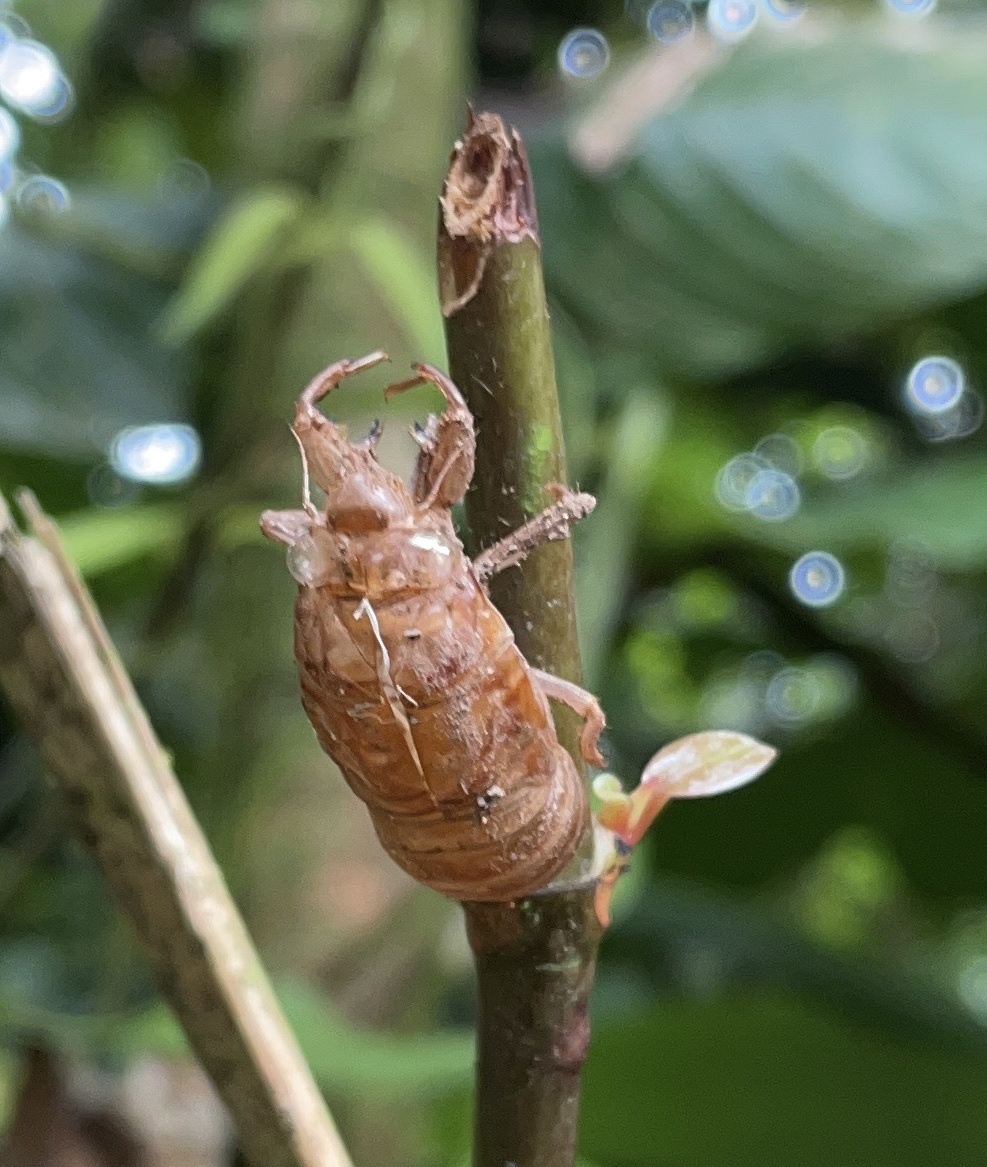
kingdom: Animalia
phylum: Arthropoda
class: Insecta
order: Hemiptera
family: Cicadidae
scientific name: Cicadidae
